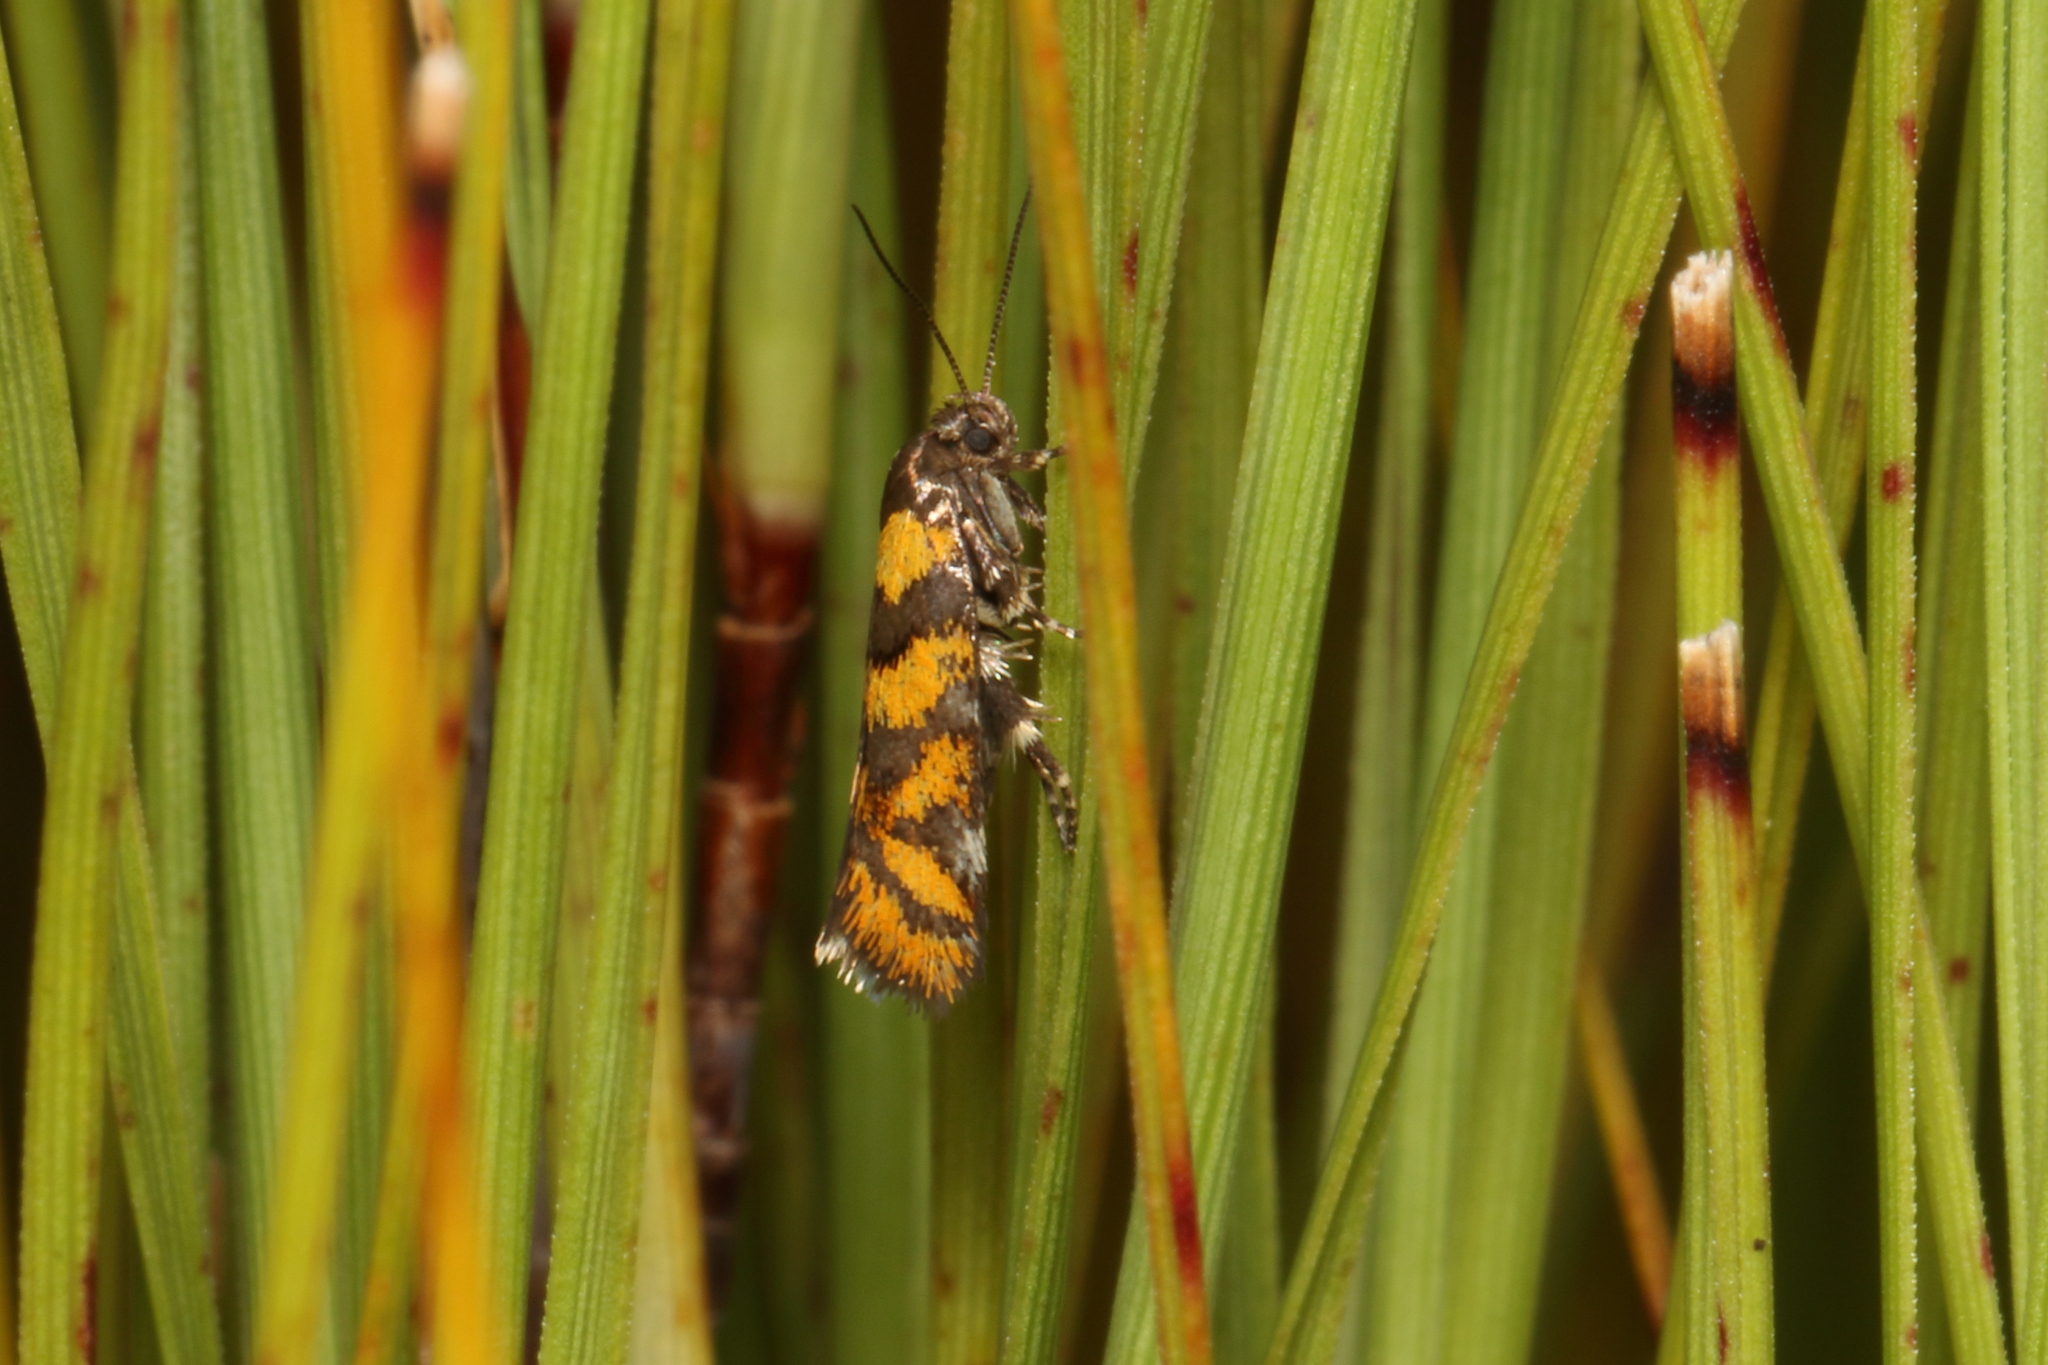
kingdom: Animalia
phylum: Arthropoda
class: Insecta
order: Lepidoptera
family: Oecophoridae
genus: Tingena
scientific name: Tingena compsogramma
